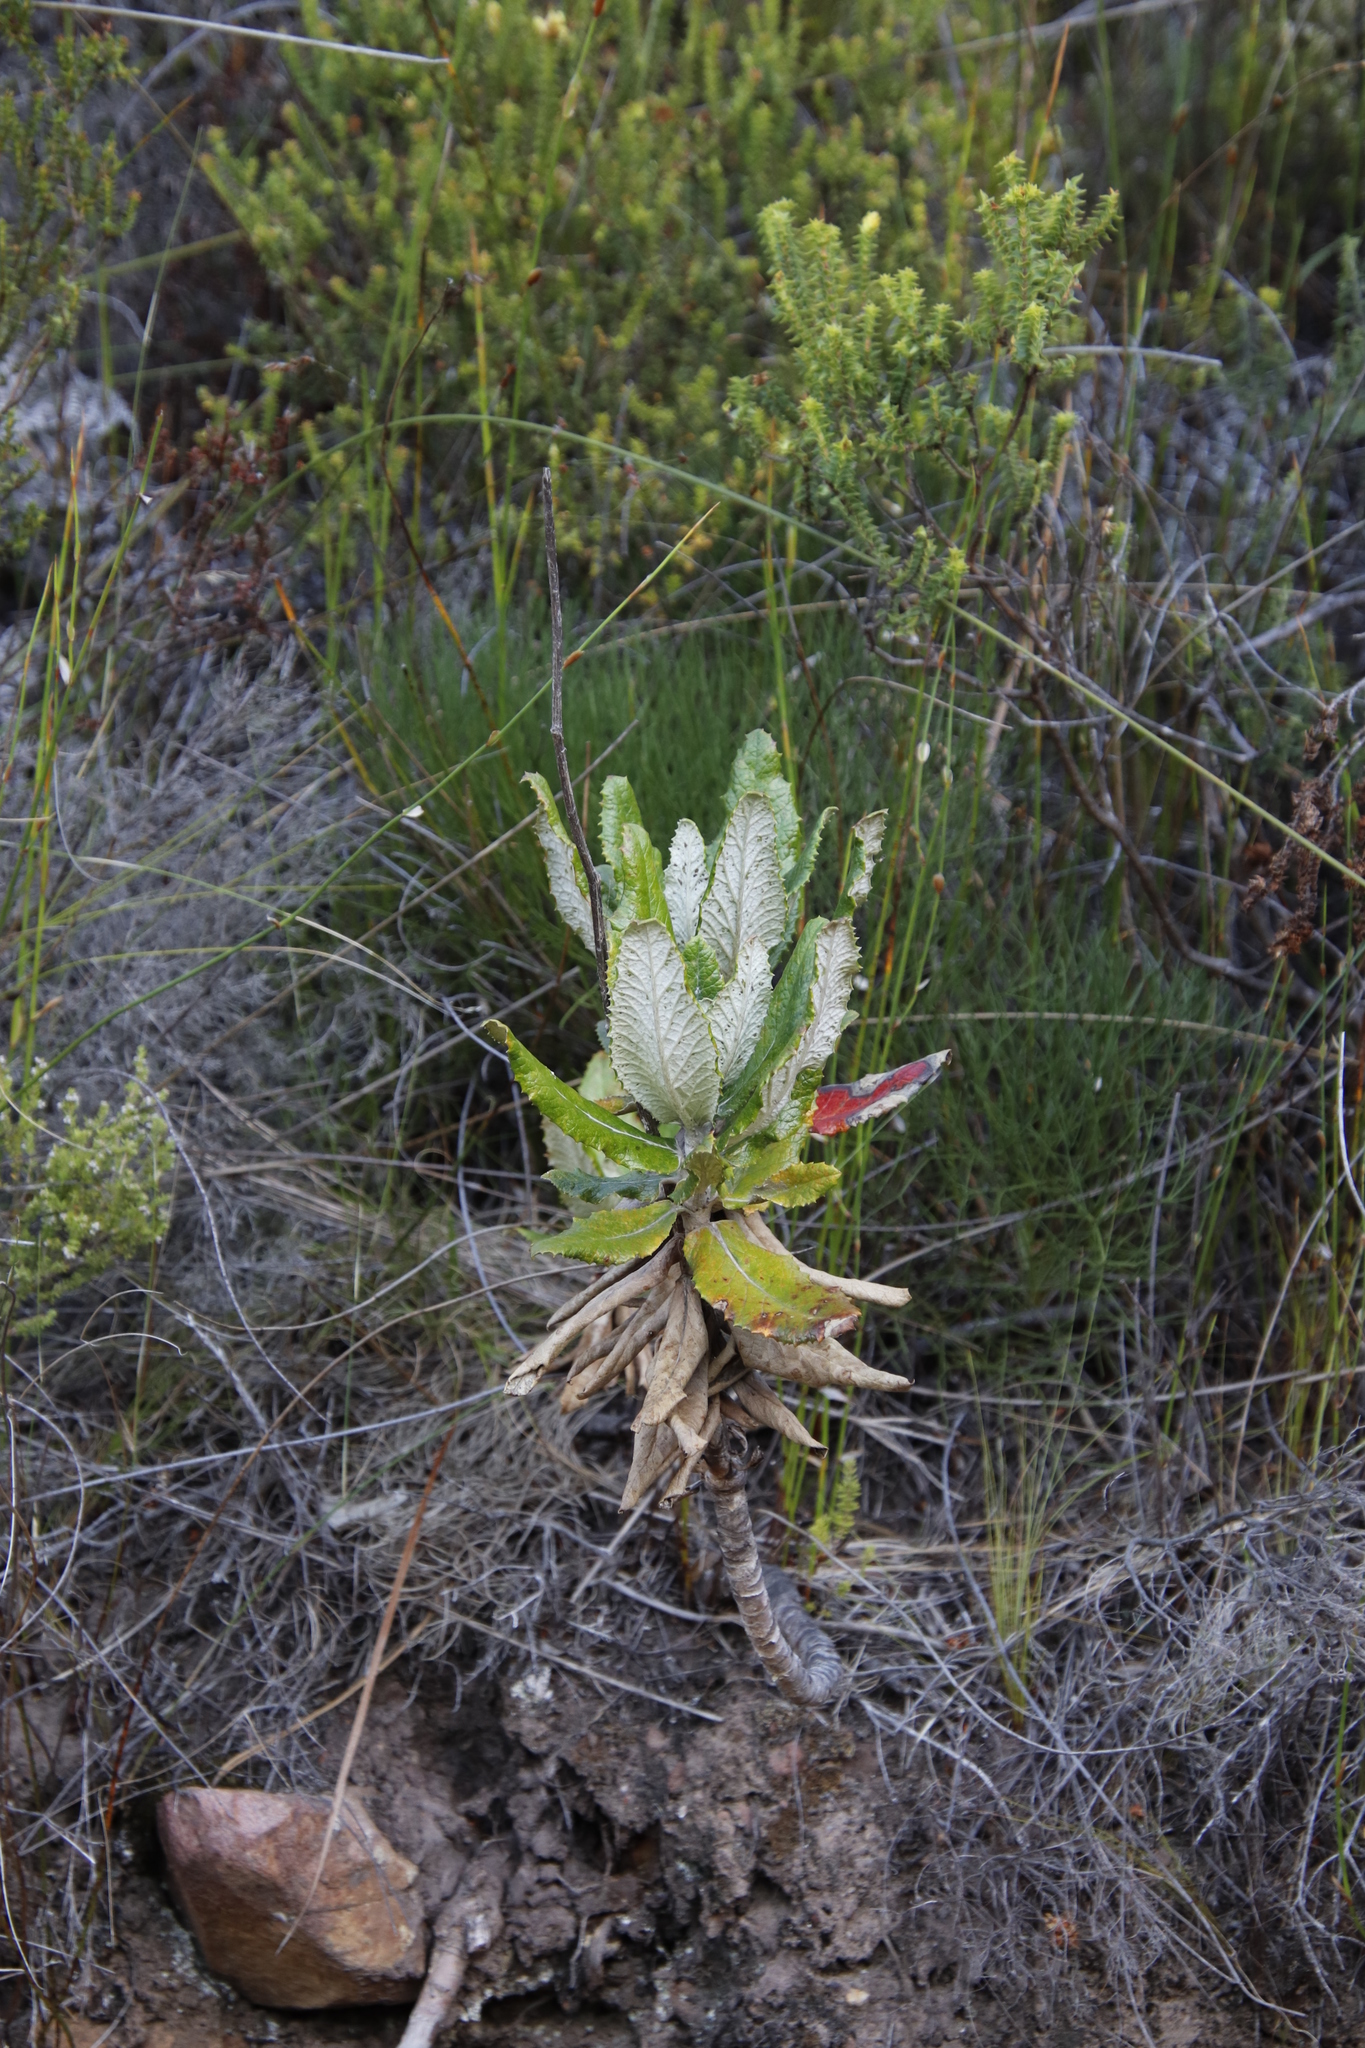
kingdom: Plantae
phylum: Tracheophyta
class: Magnoliopsida
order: Apiales
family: Apiaceae
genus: Hermas
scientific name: Hermas villosa
